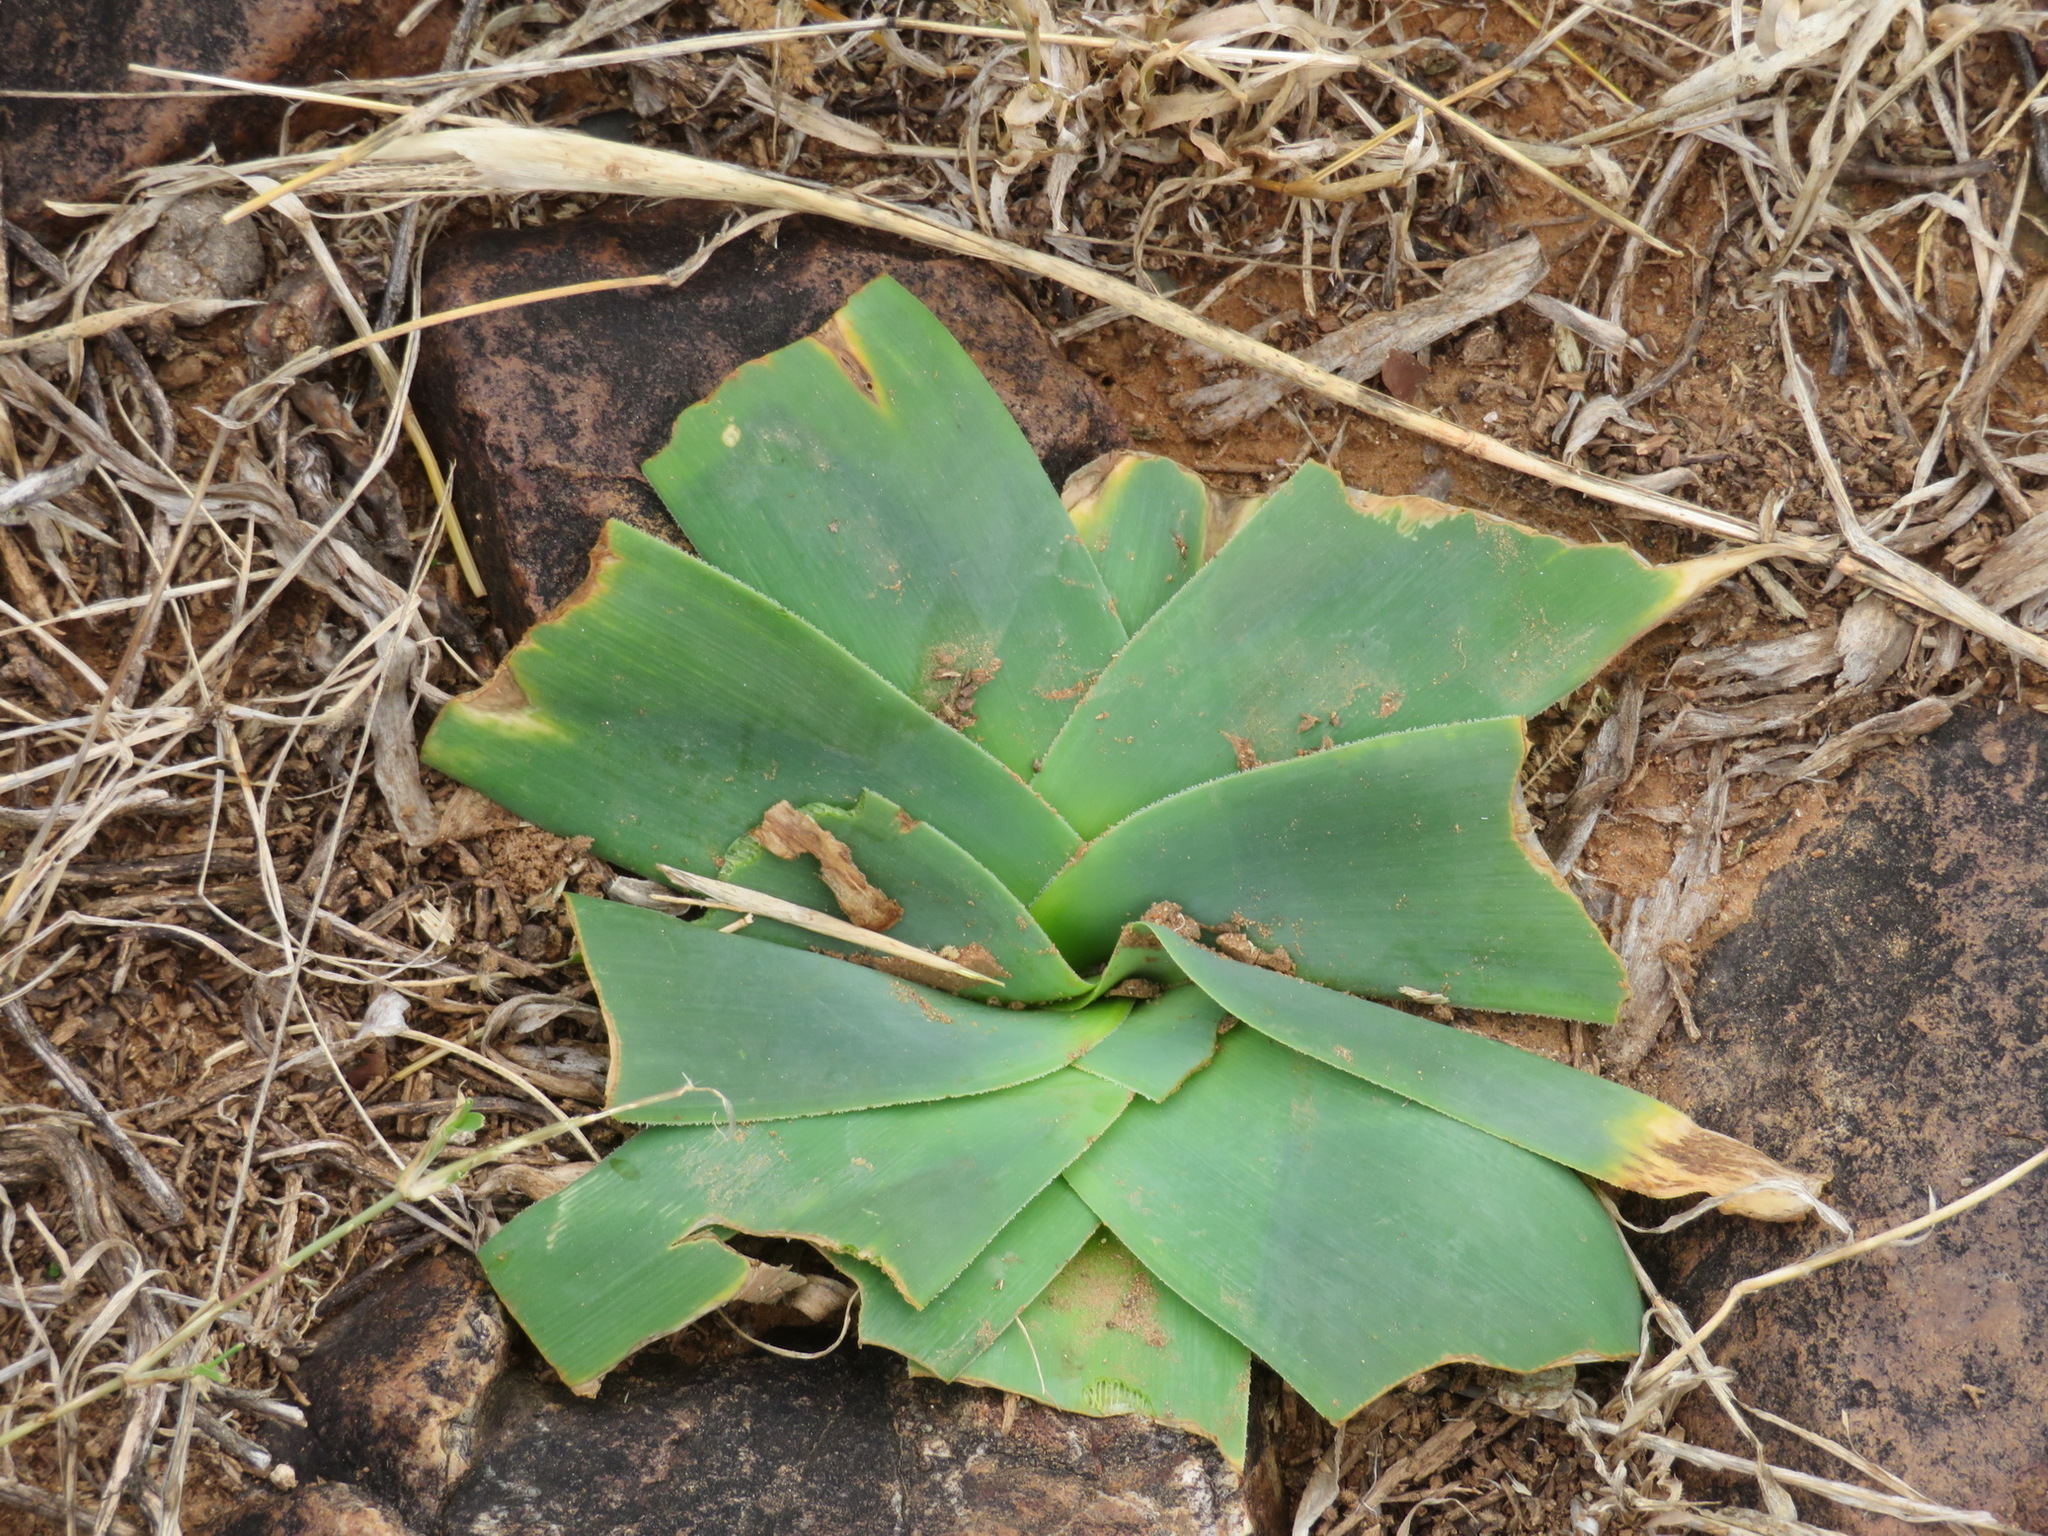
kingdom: Plantae
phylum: Tracheophyta
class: Liliopsida
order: Asparagales
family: Amaryllidaceae
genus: Ammocharis
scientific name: Ammocharis coranica
